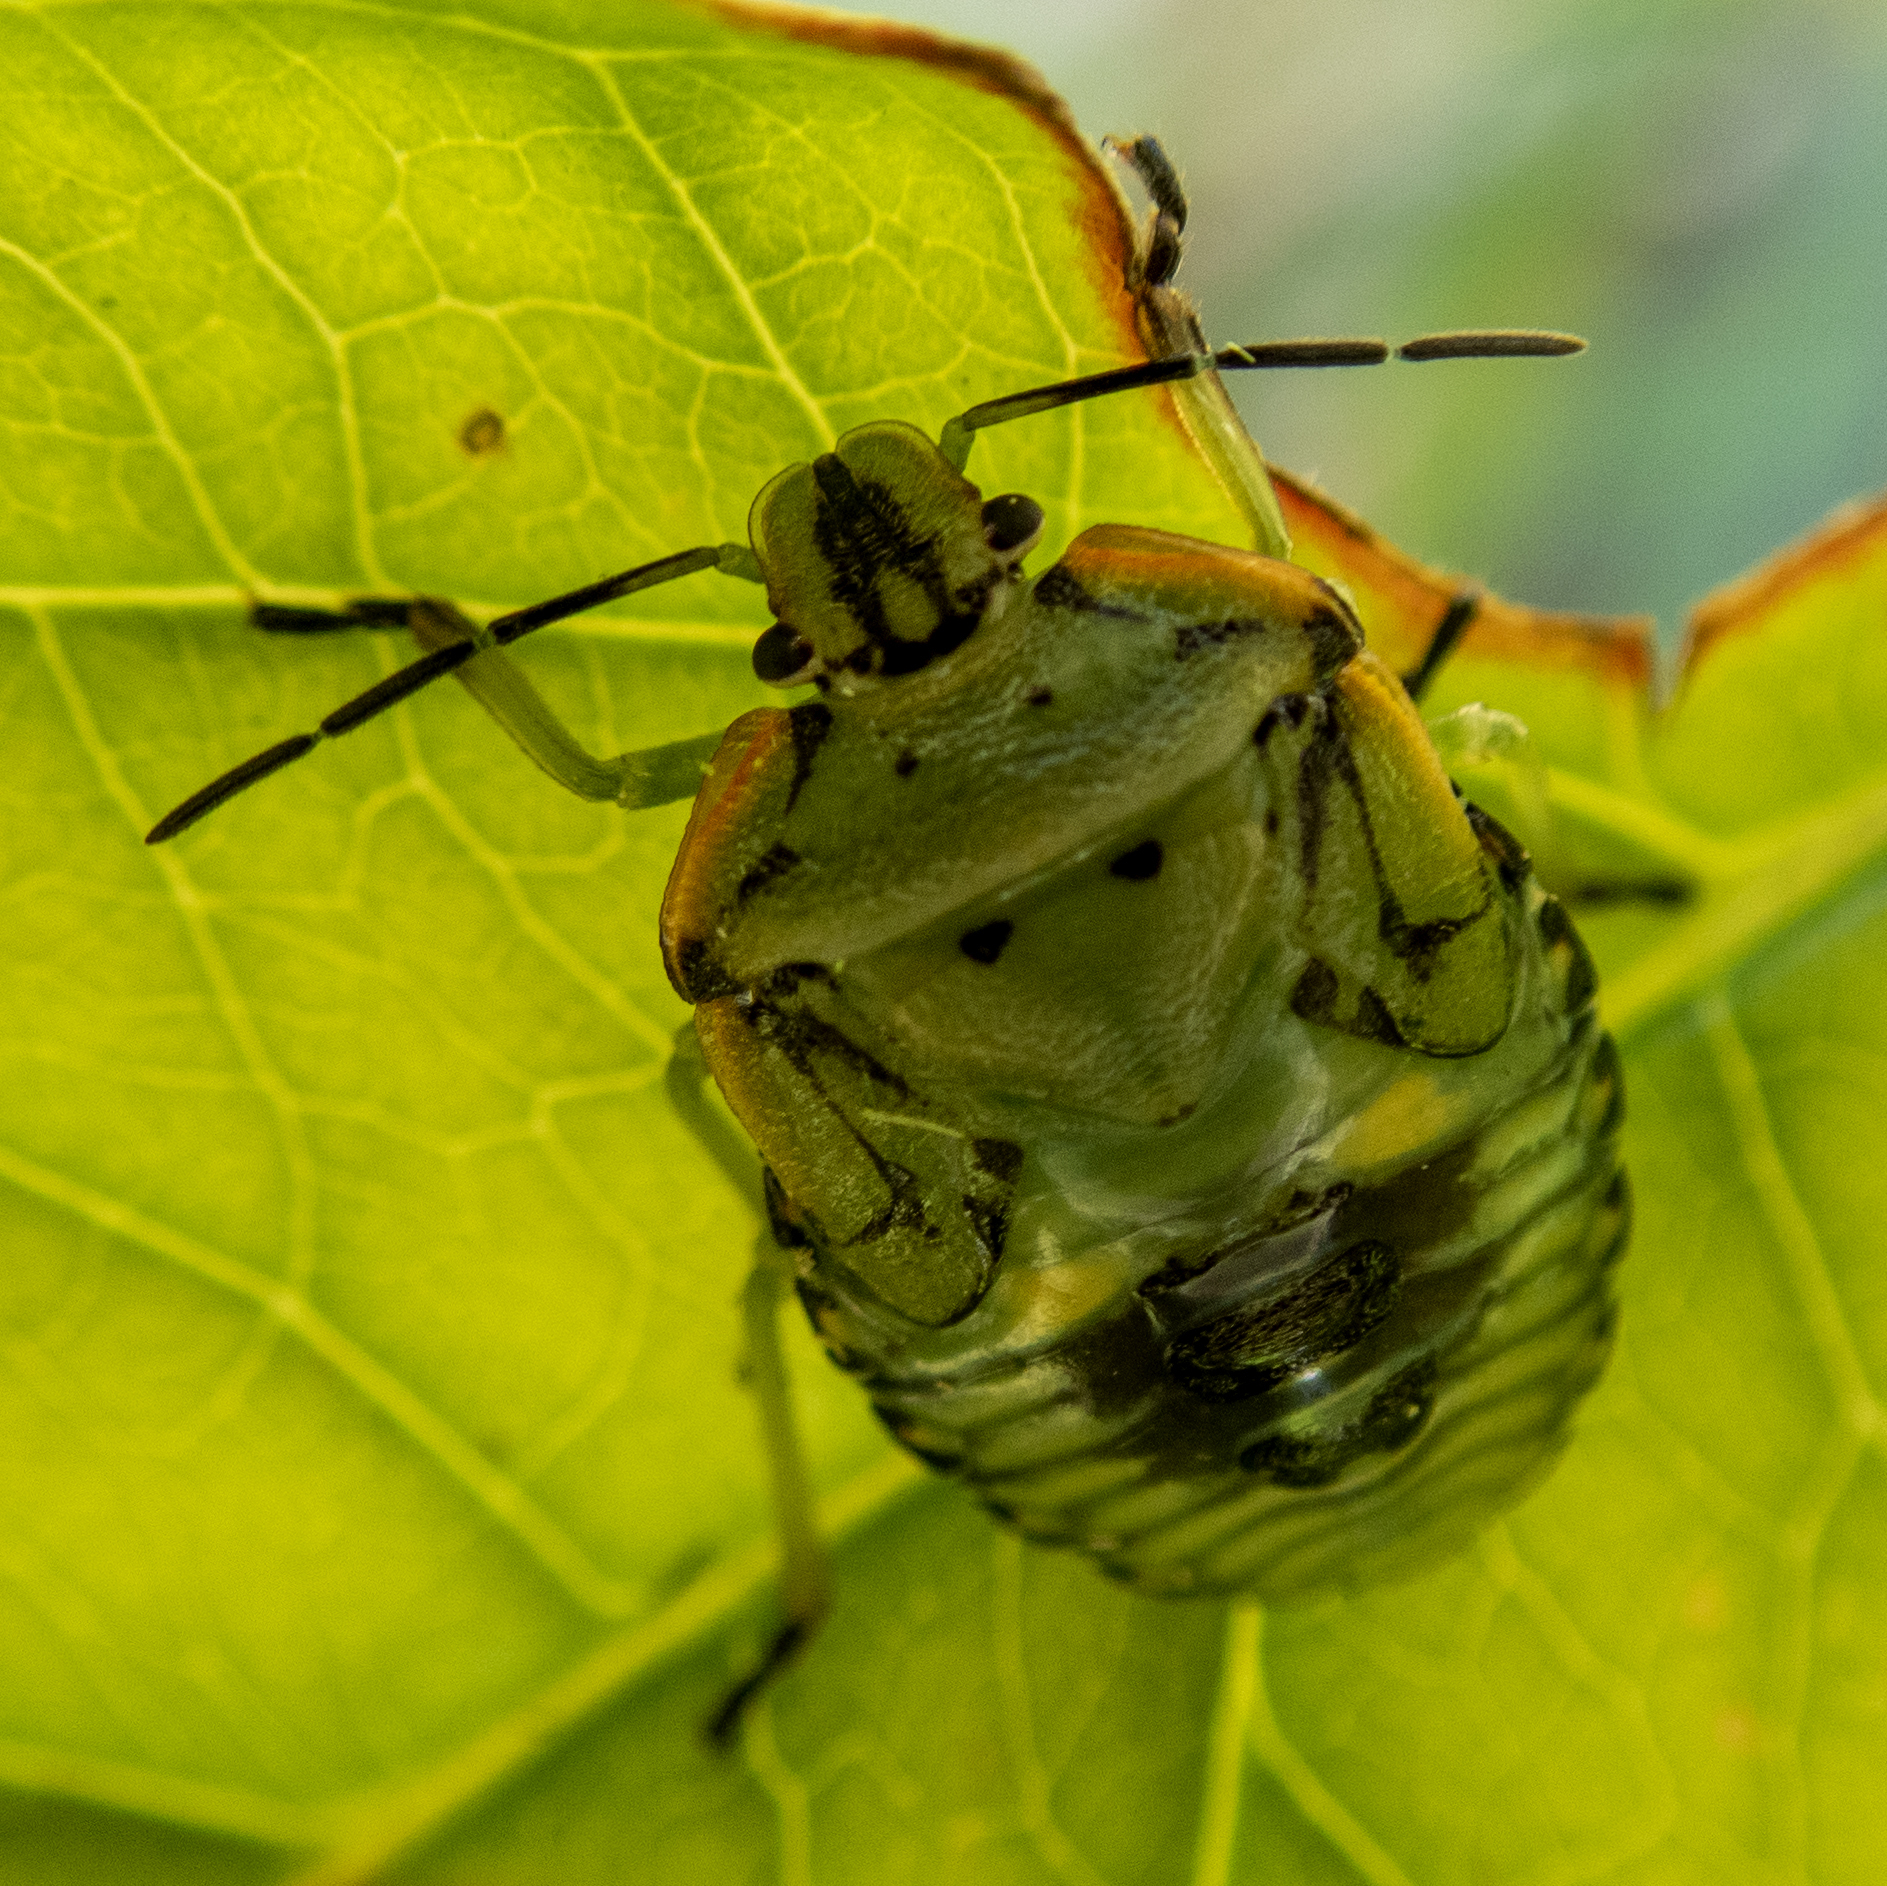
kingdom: Animalia
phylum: Arthropoda
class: Insecta
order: Hemiptera
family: Pentatomidae
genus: Chinavia
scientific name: Chinavia hilaris
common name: Green stink bug
